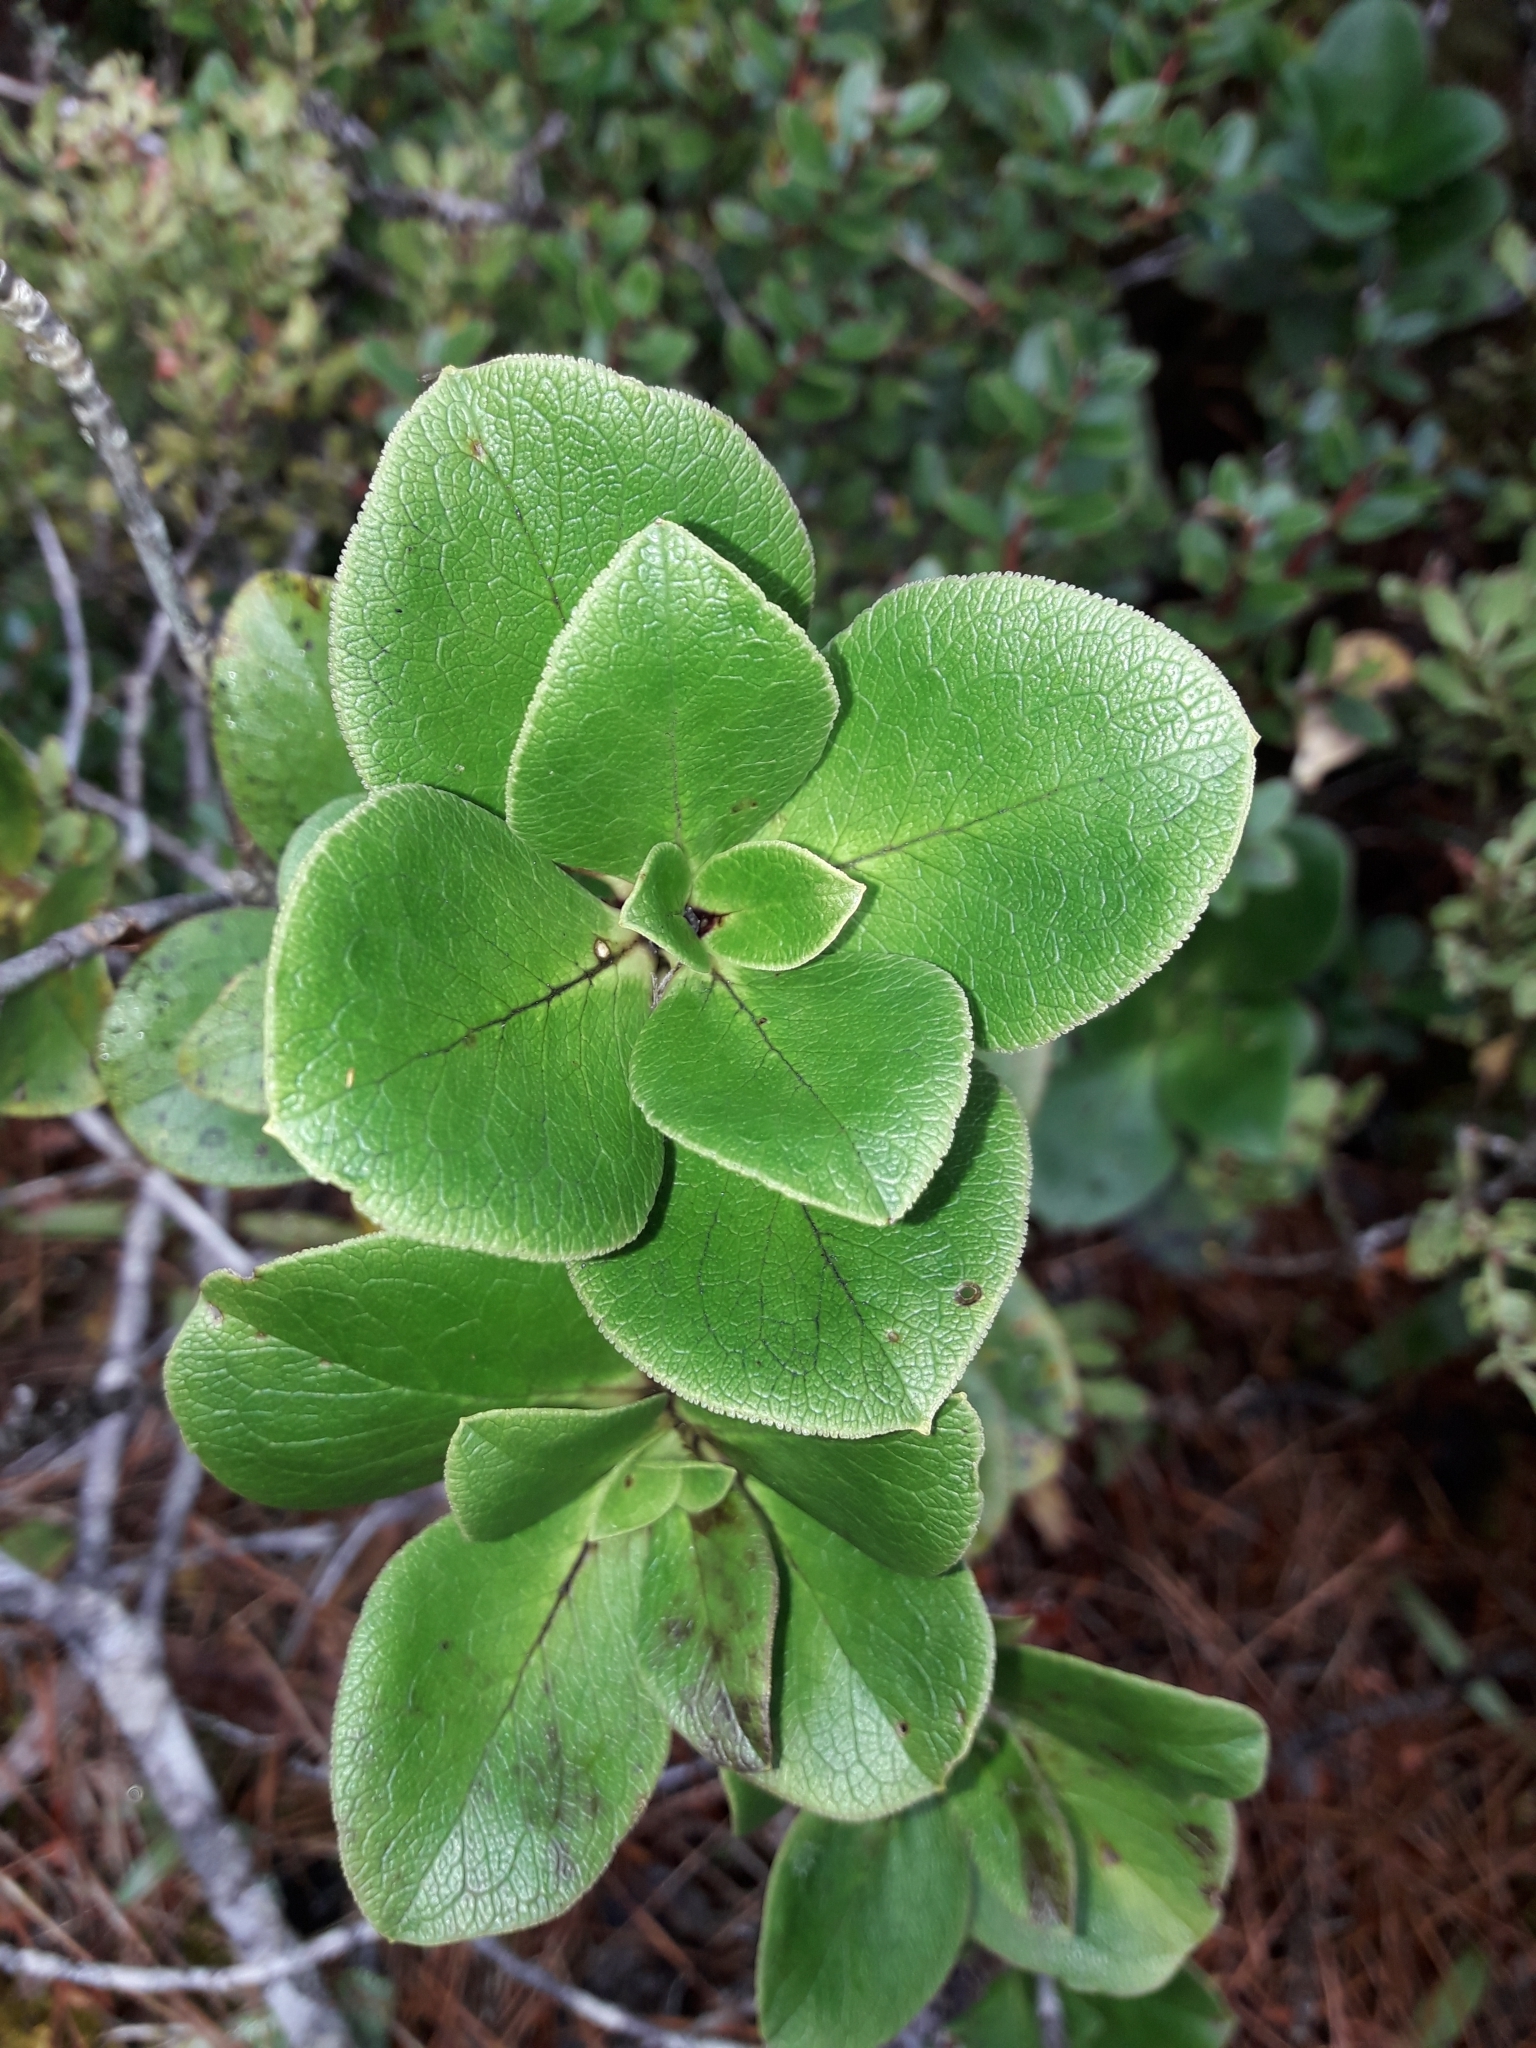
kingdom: Plantae
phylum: Tracheophyta
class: Magnoliopsida
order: Gentianales
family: Rubiaceae
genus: Coprosma
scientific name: Coprosma serrulata
